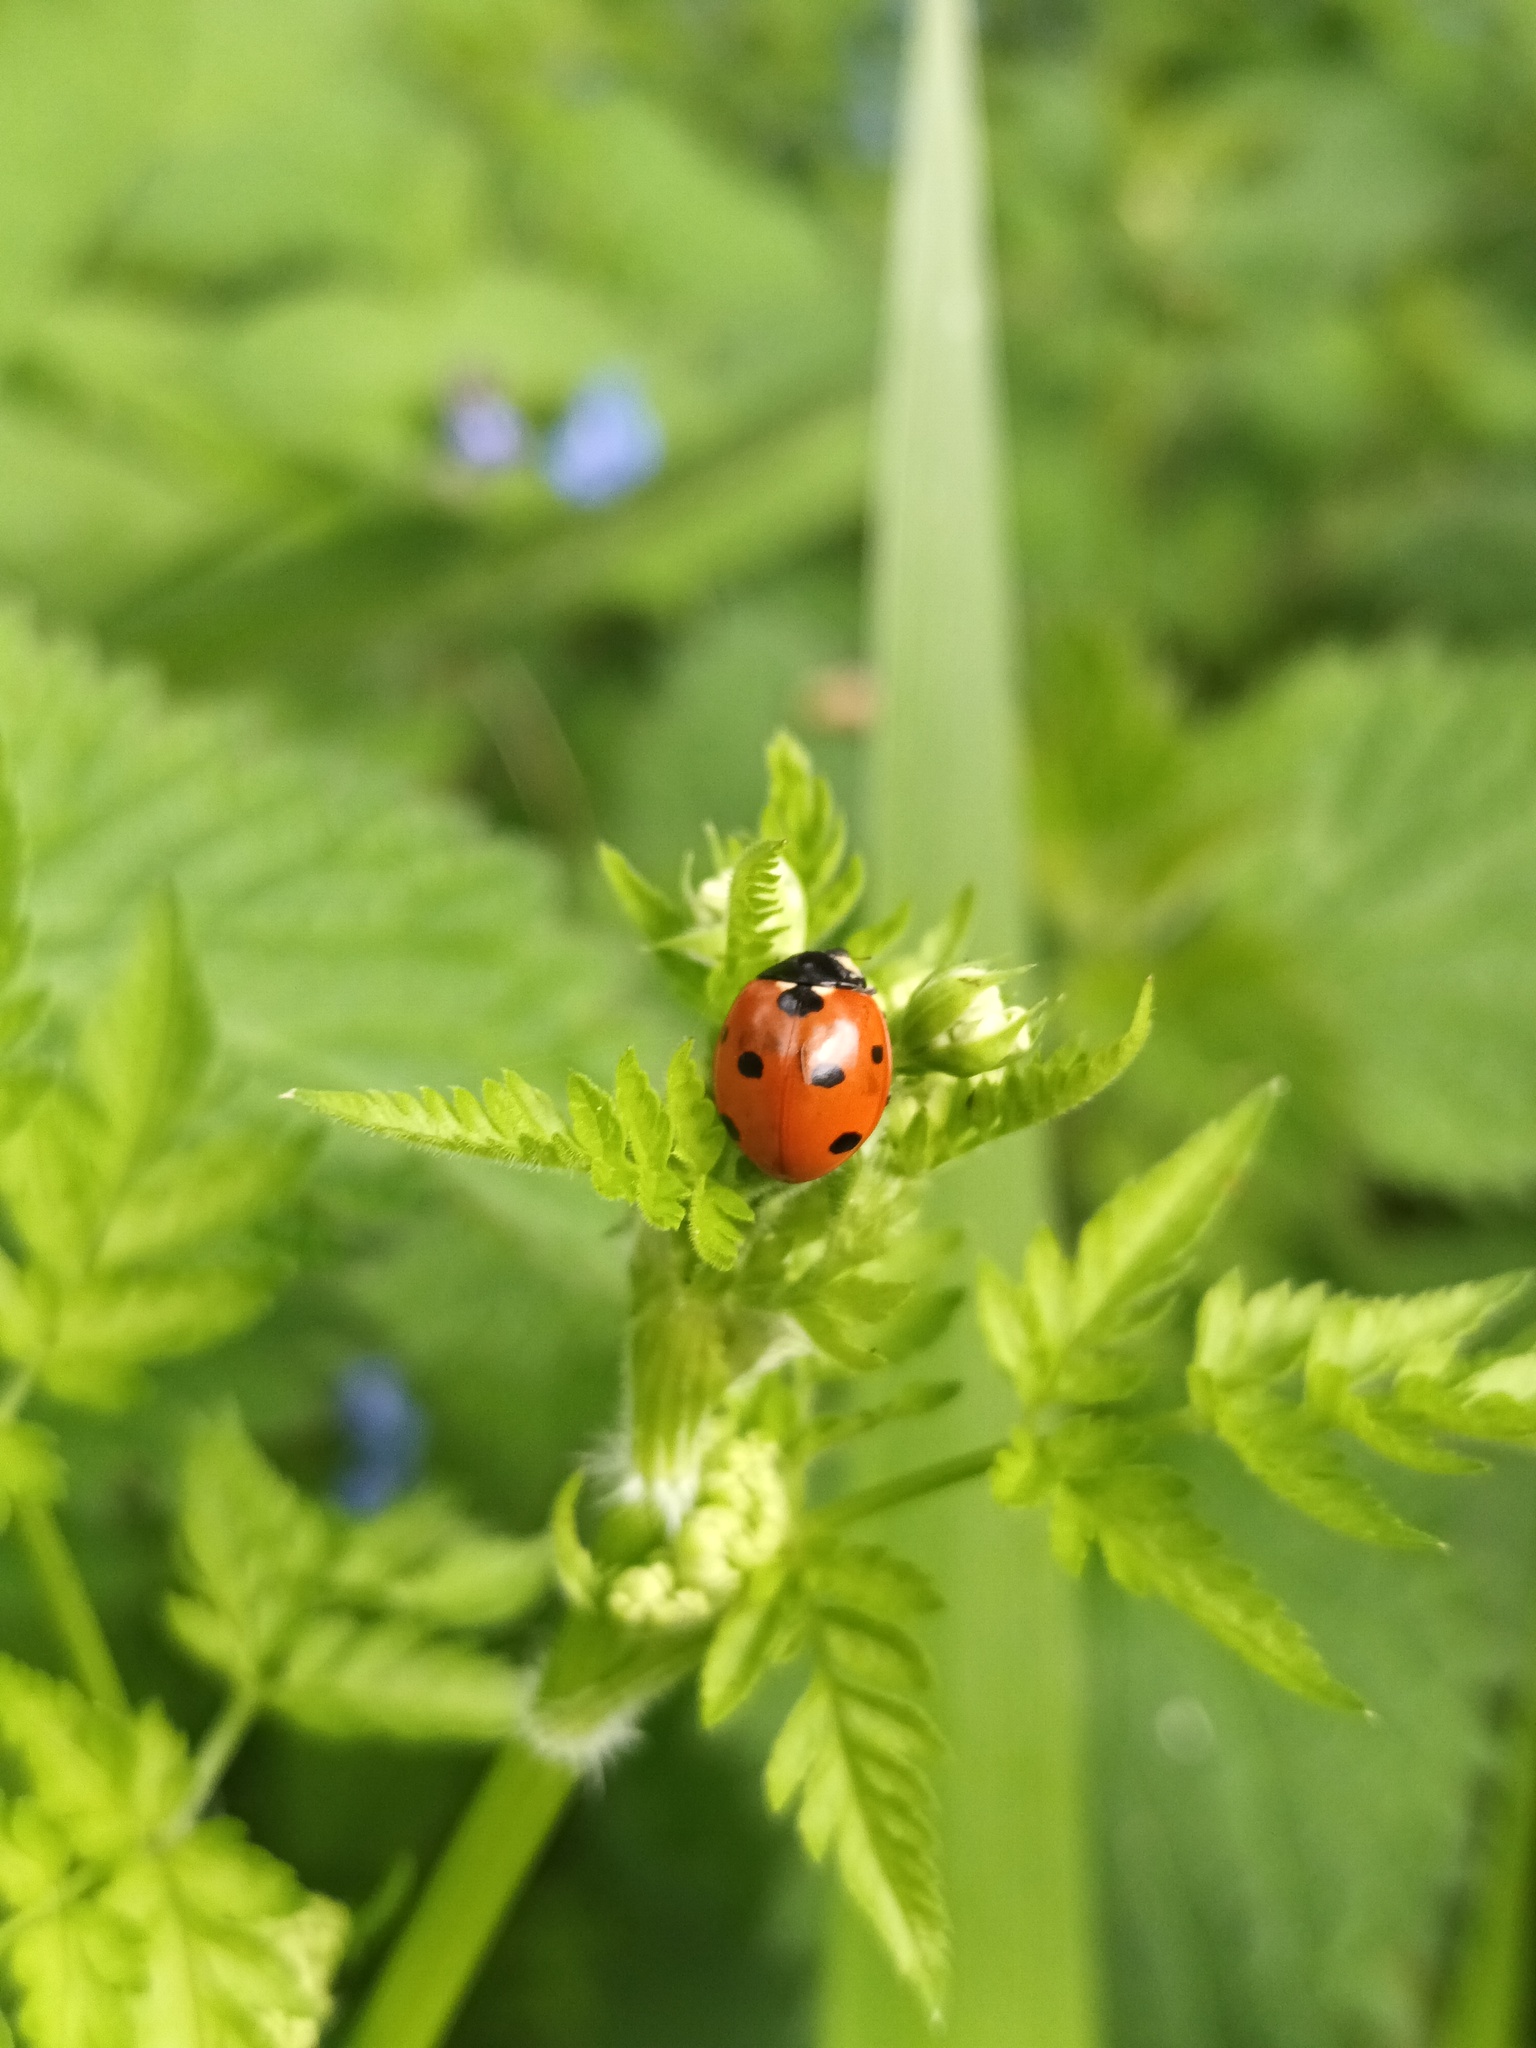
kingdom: Animalia
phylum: Arthropoda
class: Insecta
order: Coleoptera
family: Coccinellidae
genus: Coccinella
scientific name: Coccinella septempunctata
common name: Sevenspotted lady beetle
